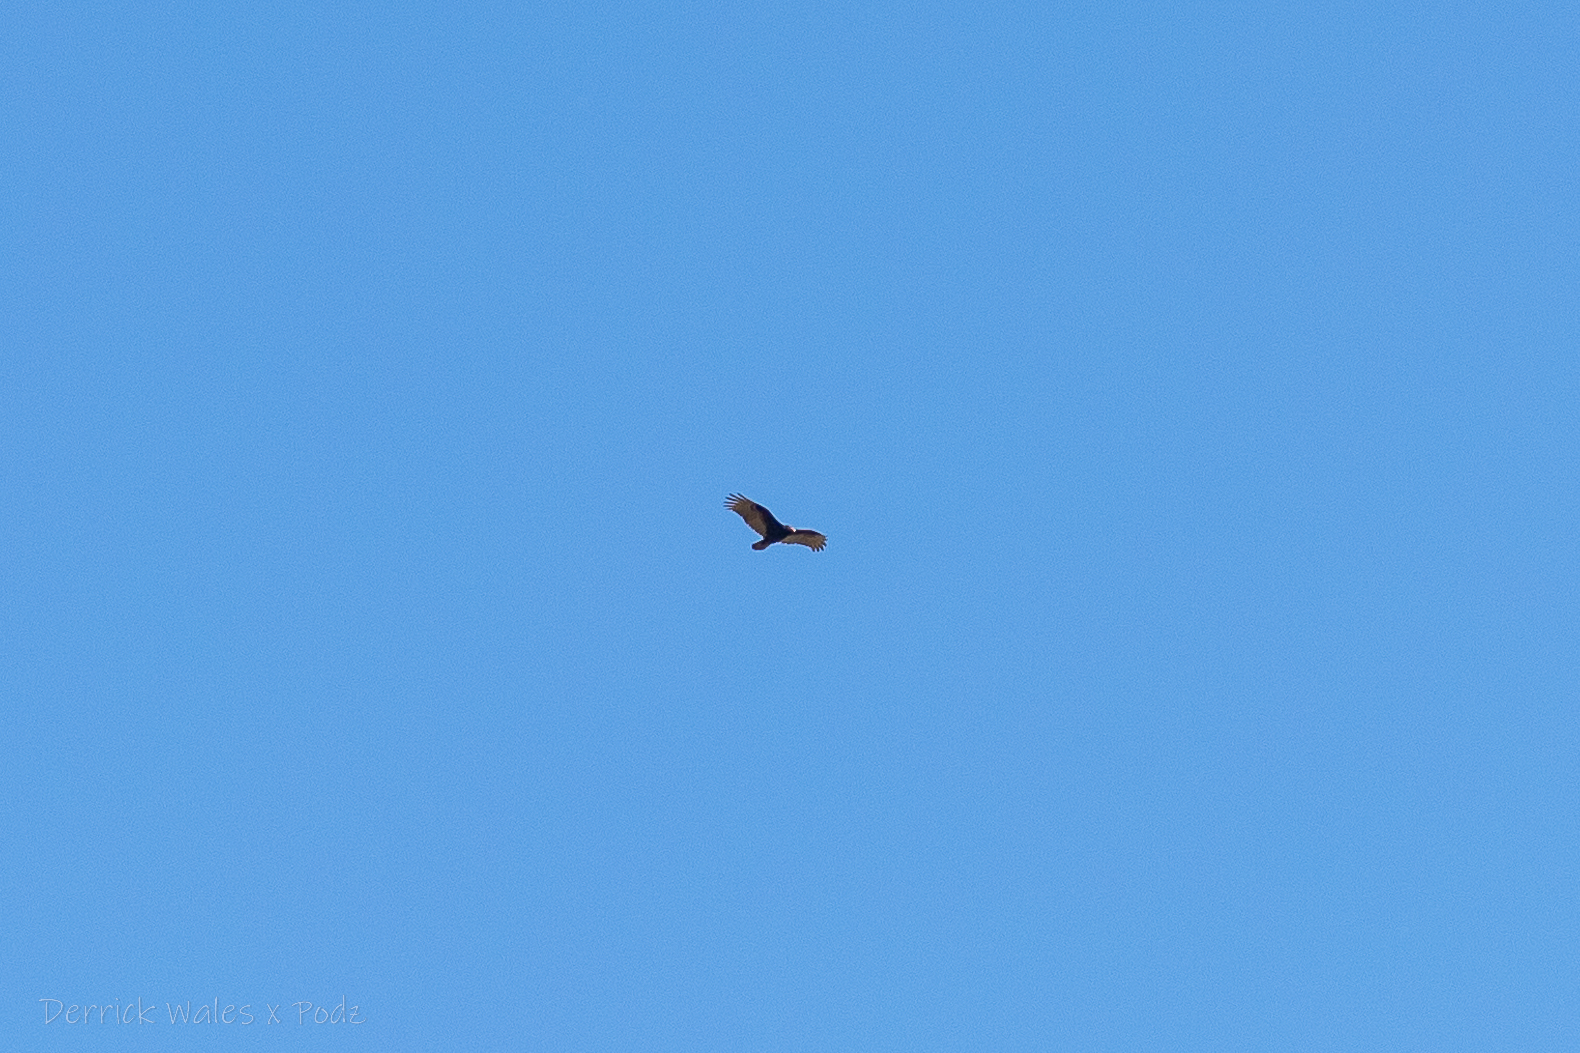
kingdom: Animalia
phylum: Chordata
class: Aves
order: Accipitriformes
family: Cathartidae
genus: Cathartes
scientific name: Cathartes aura
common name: Turkey vulture
